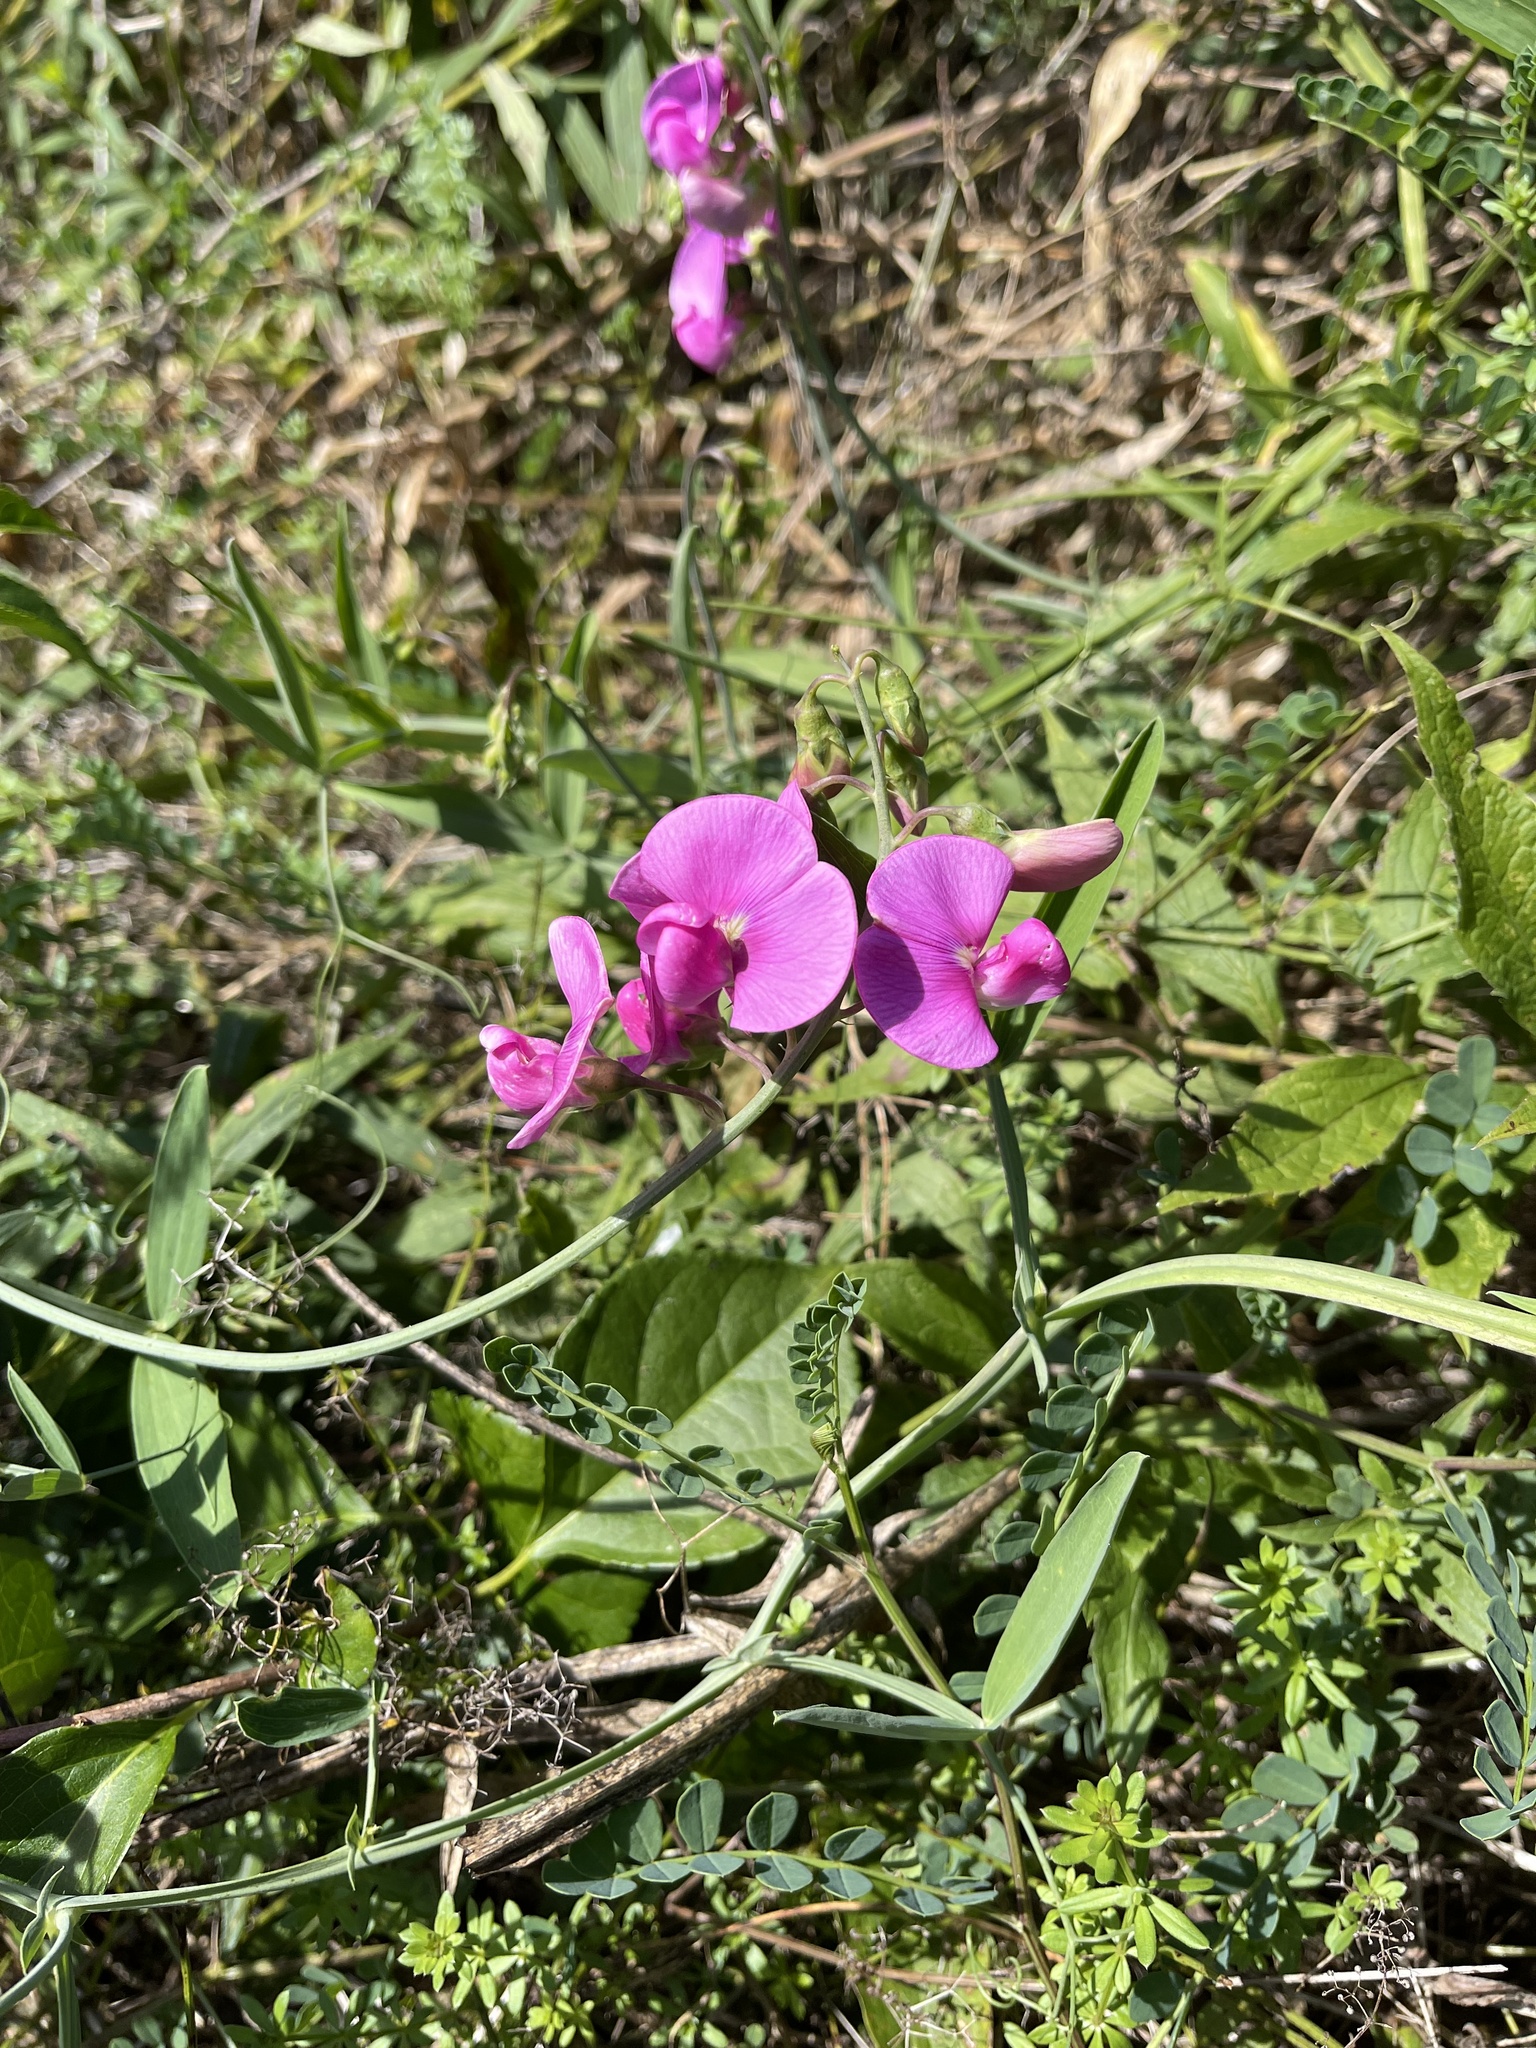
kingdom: Plantae
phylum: Tracheophyta
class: Magnoliopsida
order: Fabales
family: Fabaceae
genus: Lathyrus
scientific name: Lathyrus latifolius
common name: Perennial pea
